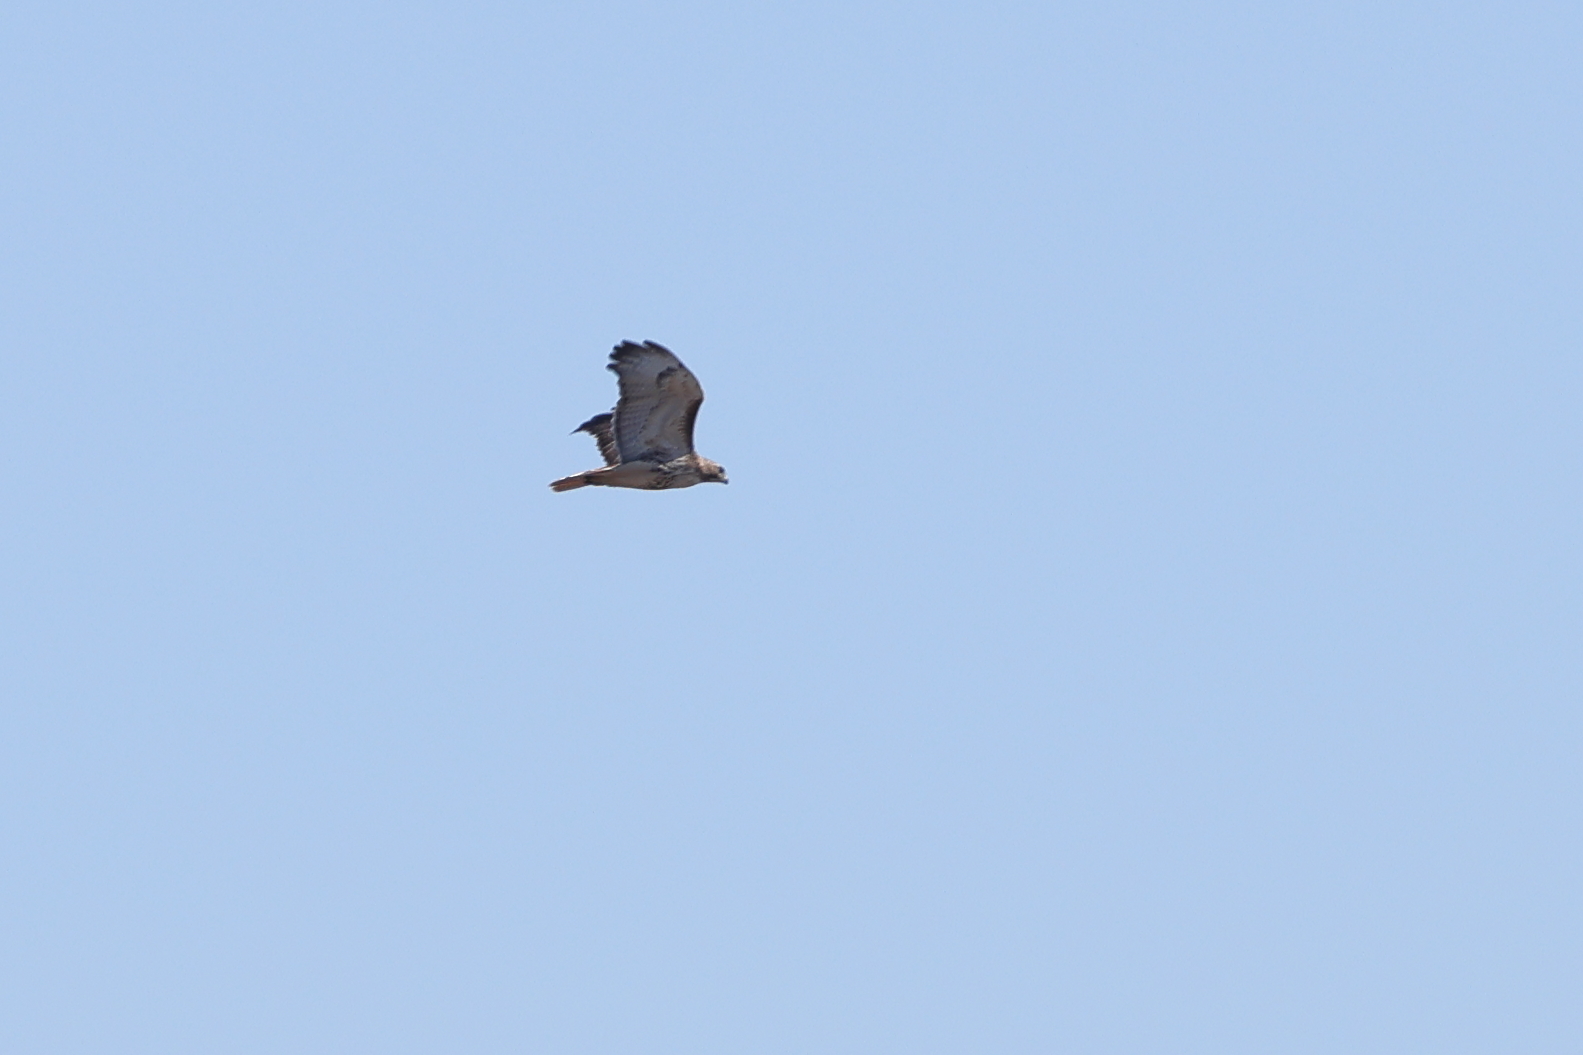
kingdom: Animalia
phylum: Chordata
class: Aves
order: Accipitriformes
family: Accipitridae
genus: Buteo
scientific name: Buteo jamaicensis
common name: Red-tailed hawk
